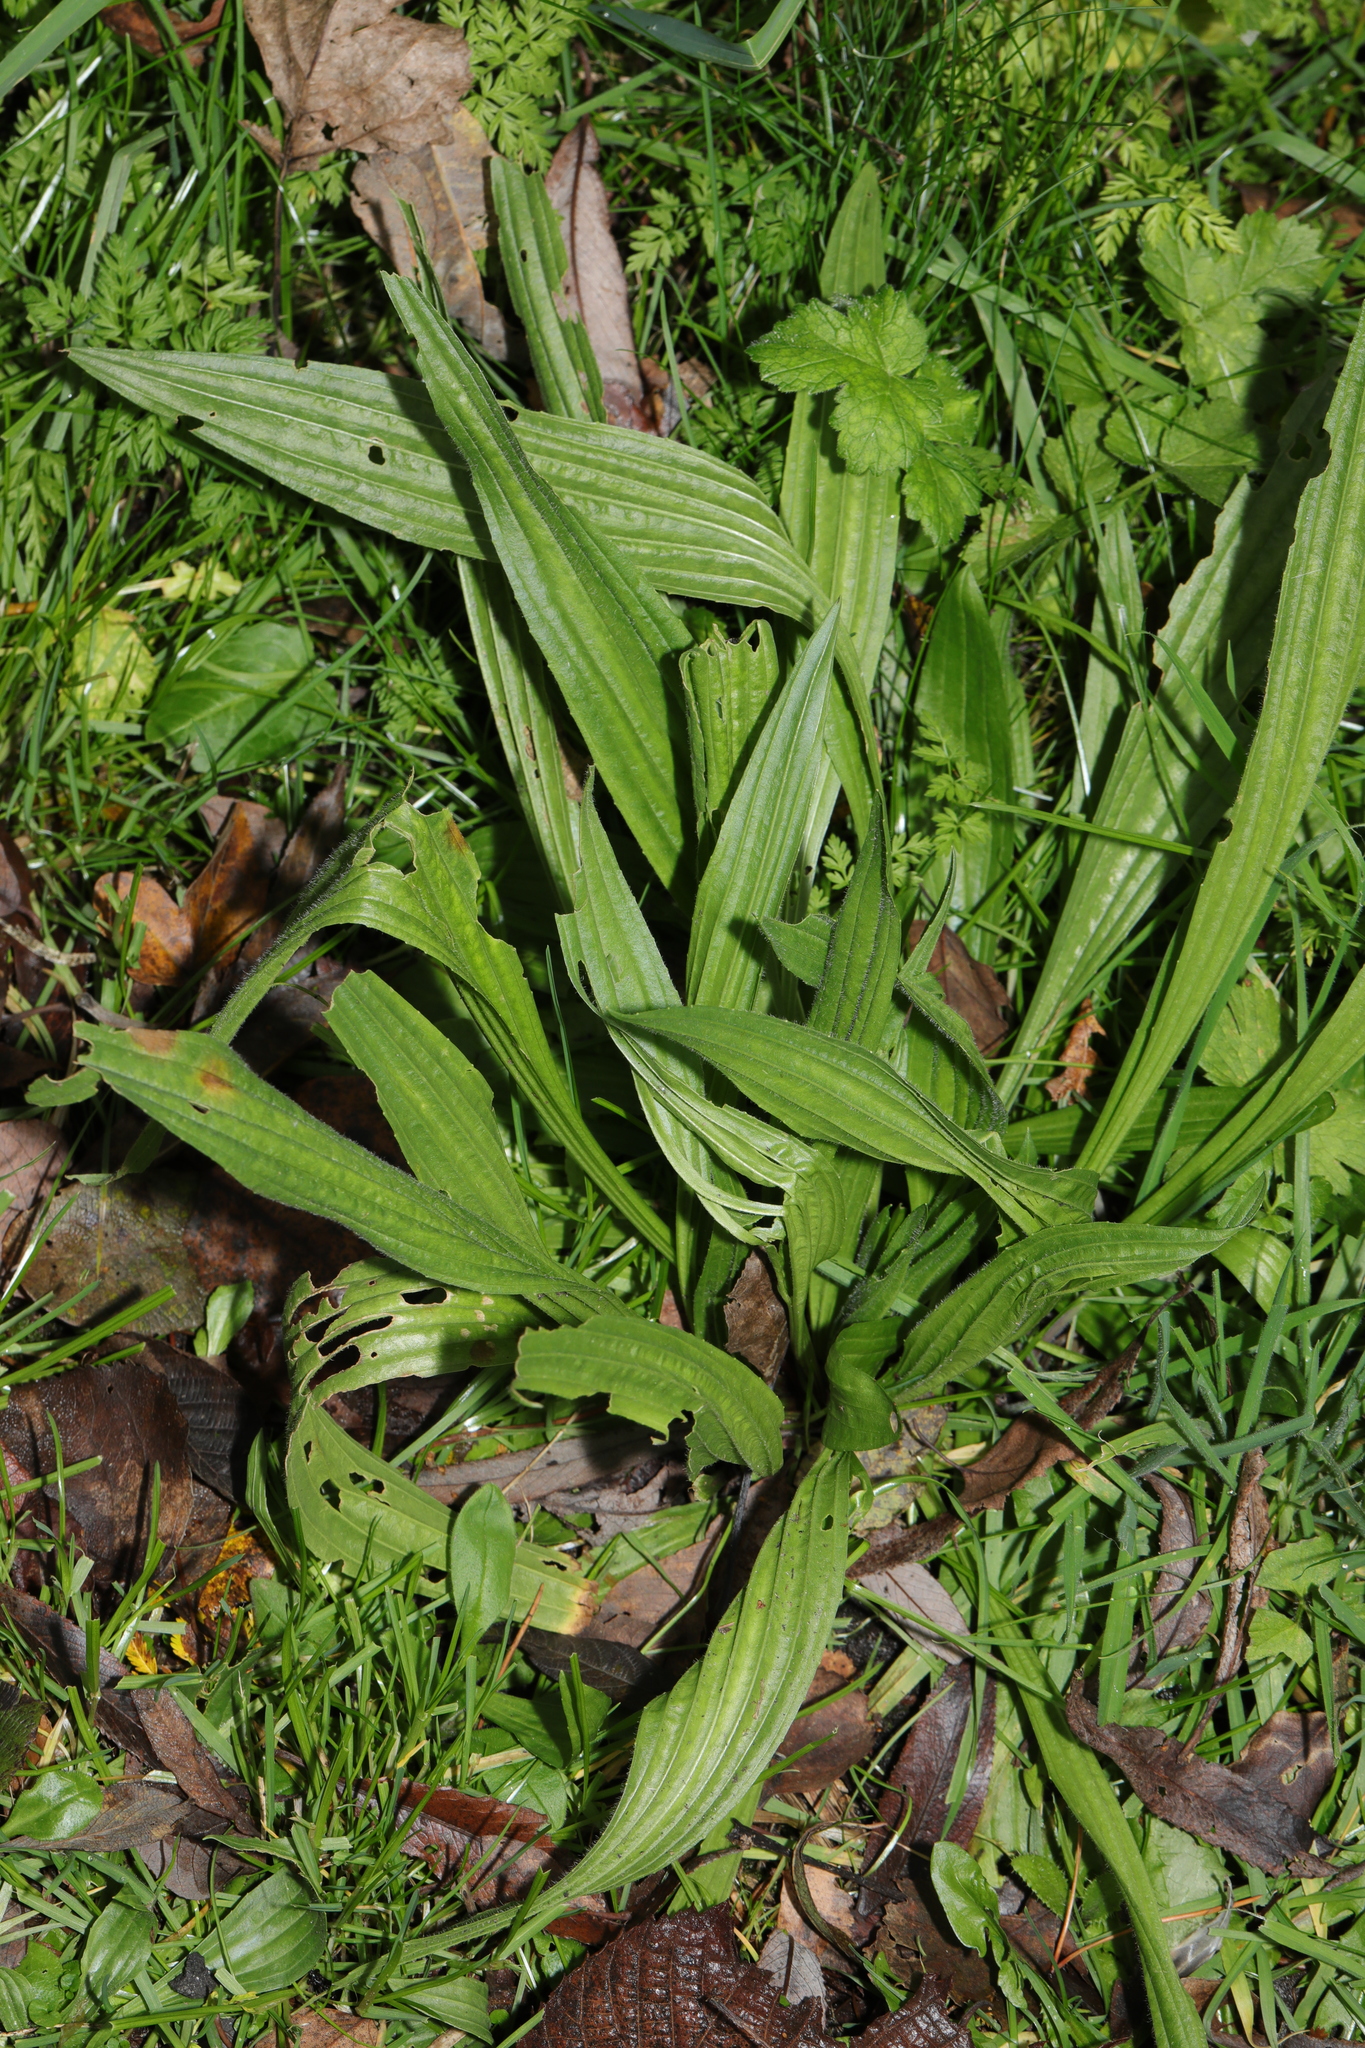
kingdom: Plantae
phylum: Tracheophyta
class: Magnoliopsida
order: Lamiales
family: Plantaginaceae
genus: Plantago
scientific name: Plantago lanceolata
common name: Ribwort plantain
